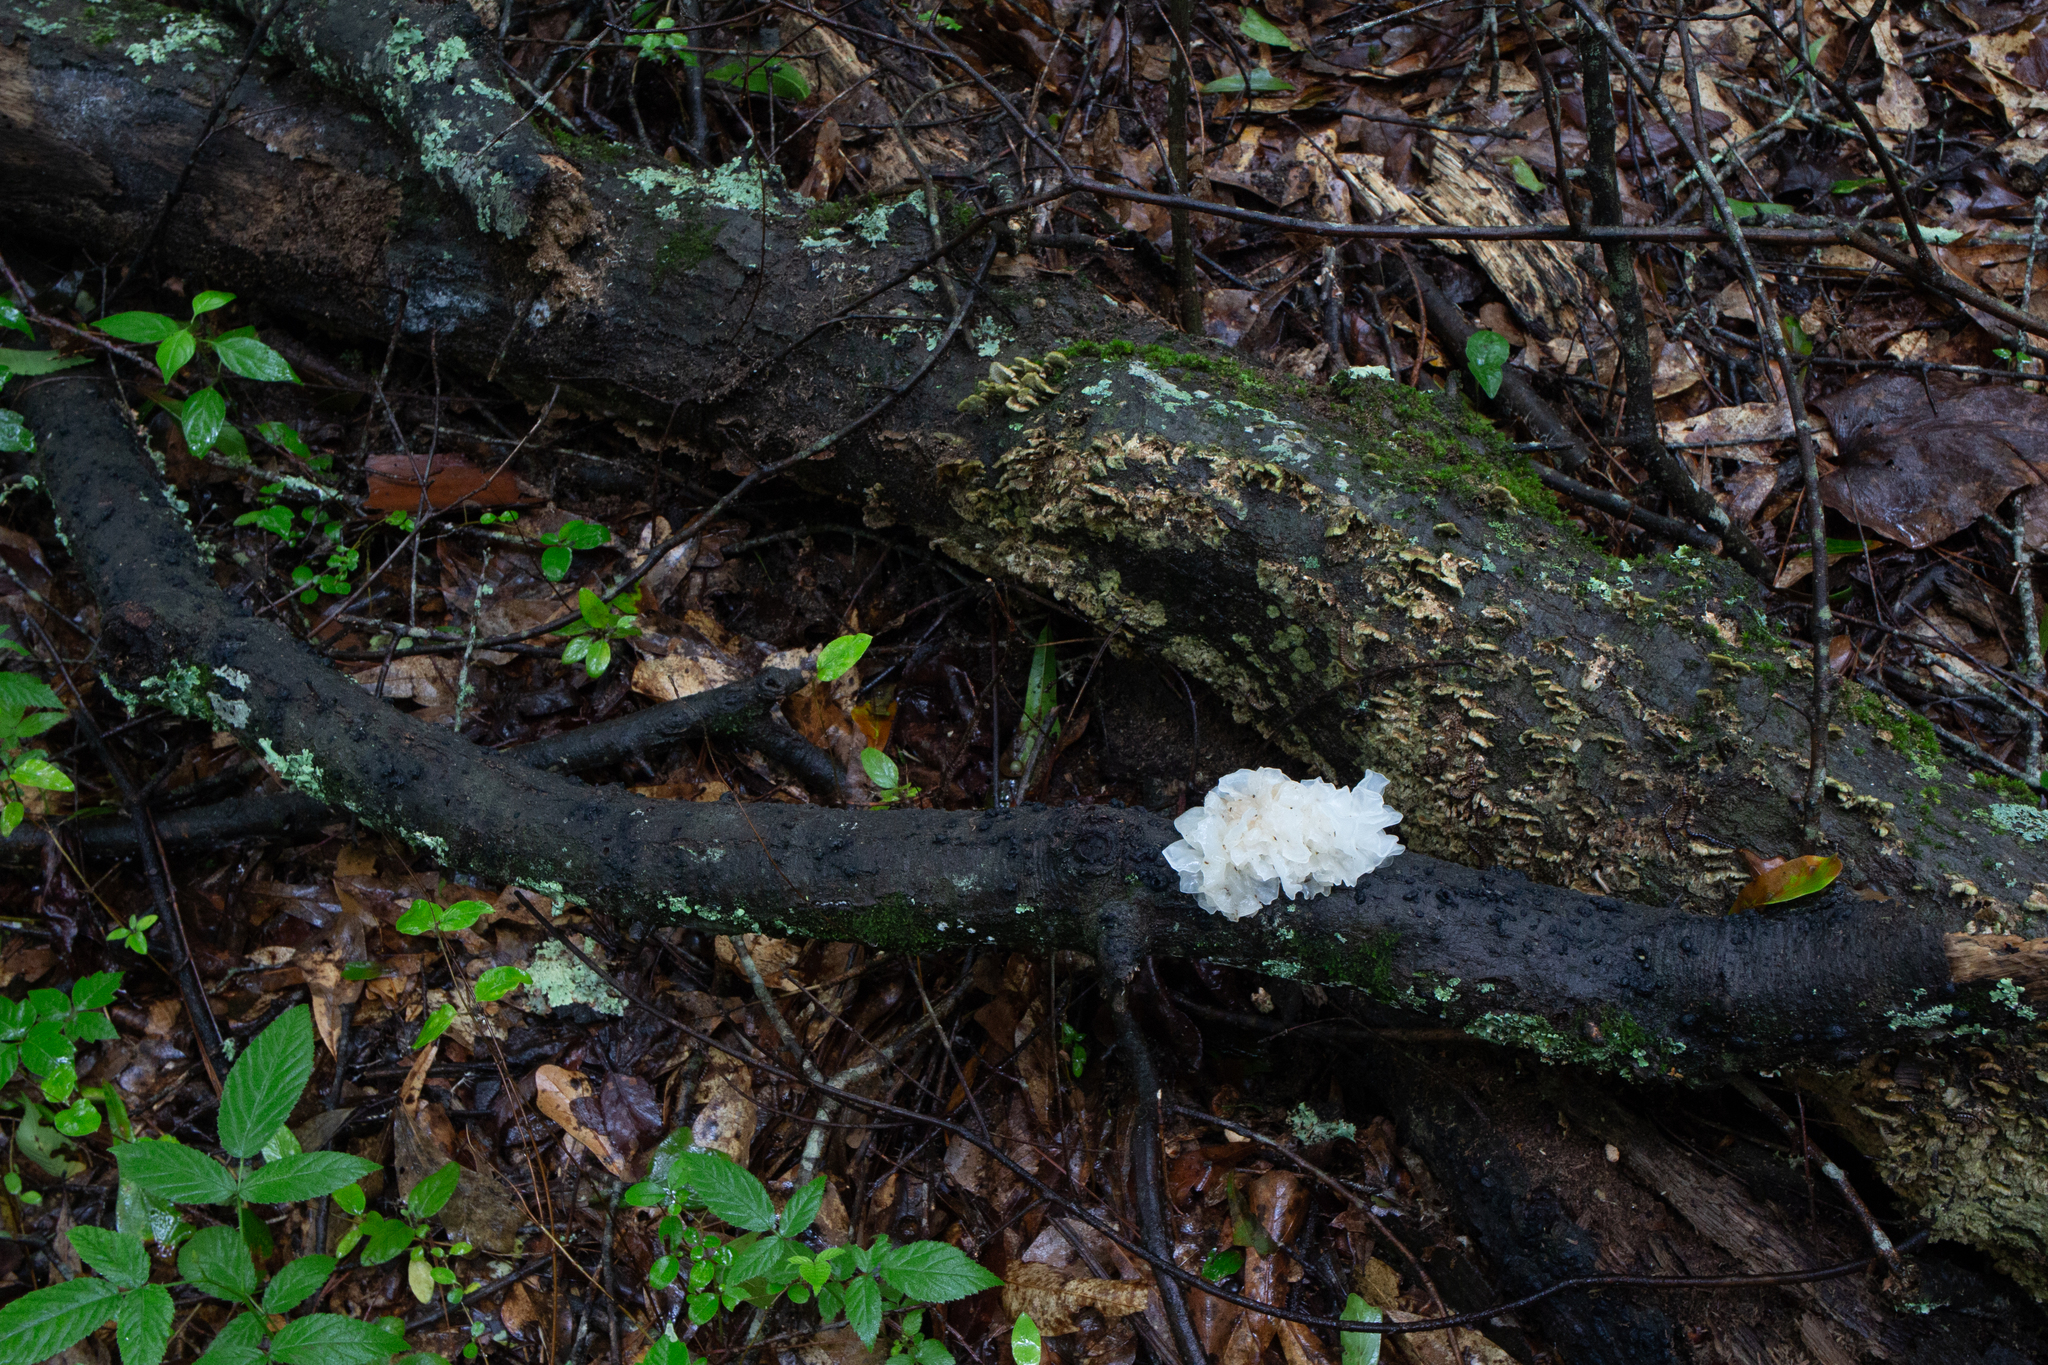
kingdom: Fungi
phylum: Basidiomycota
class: Tremellomycetes
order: Tremellales
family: Tremellaceae
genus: Tremella
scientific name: Tremella fuciformis
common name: Snow fungus
